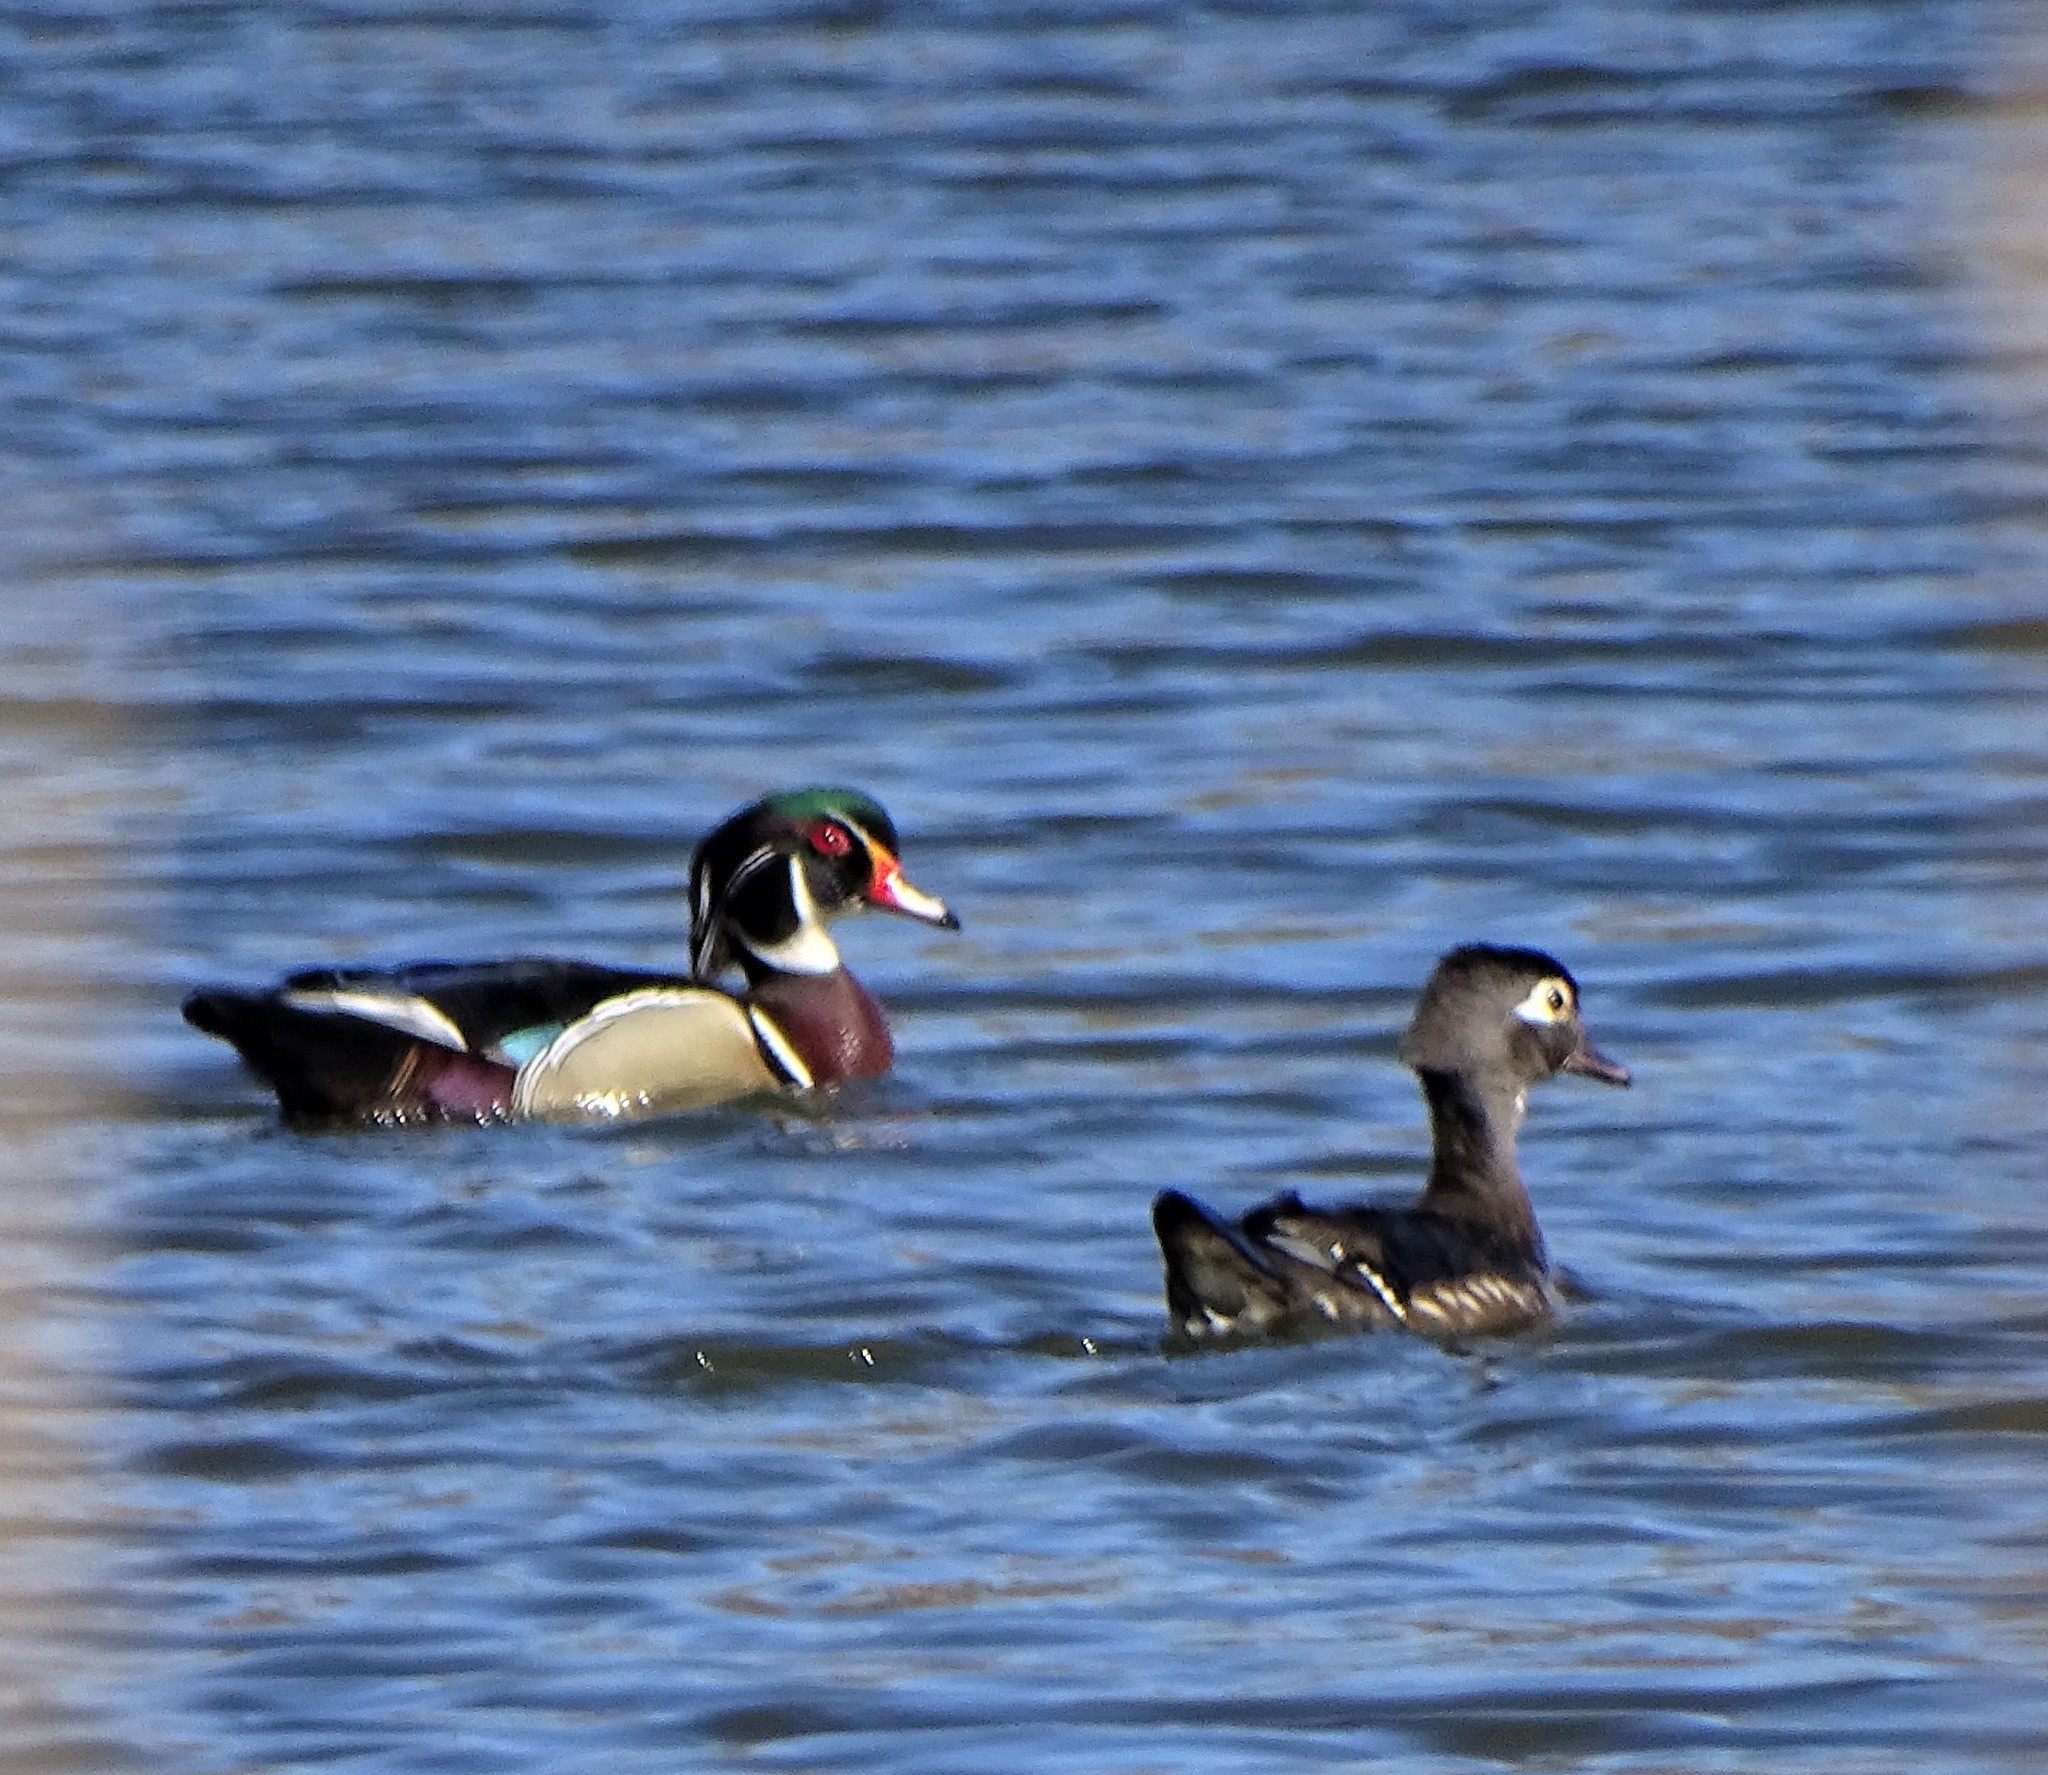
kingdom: Animalia
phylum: Chordata
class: Aves
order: Anseriformes
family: Anatidae
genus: Aix
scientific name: Aix sponsa
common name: Wood duck
